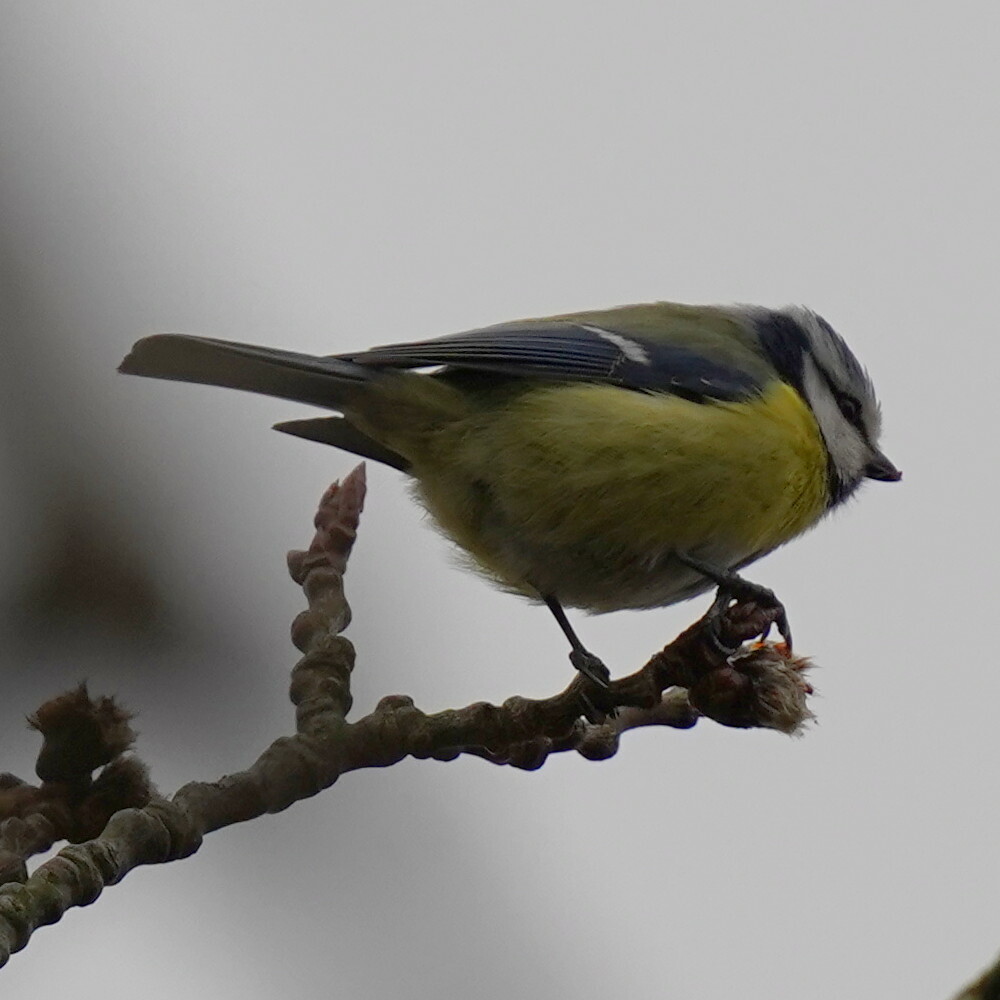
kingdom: Animalia
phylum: Chordata
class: Aves
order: Passeriformes
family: Paridae
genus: Cyanistes
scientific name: Cyanistes caeruleus
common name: Eurasian blue tit
